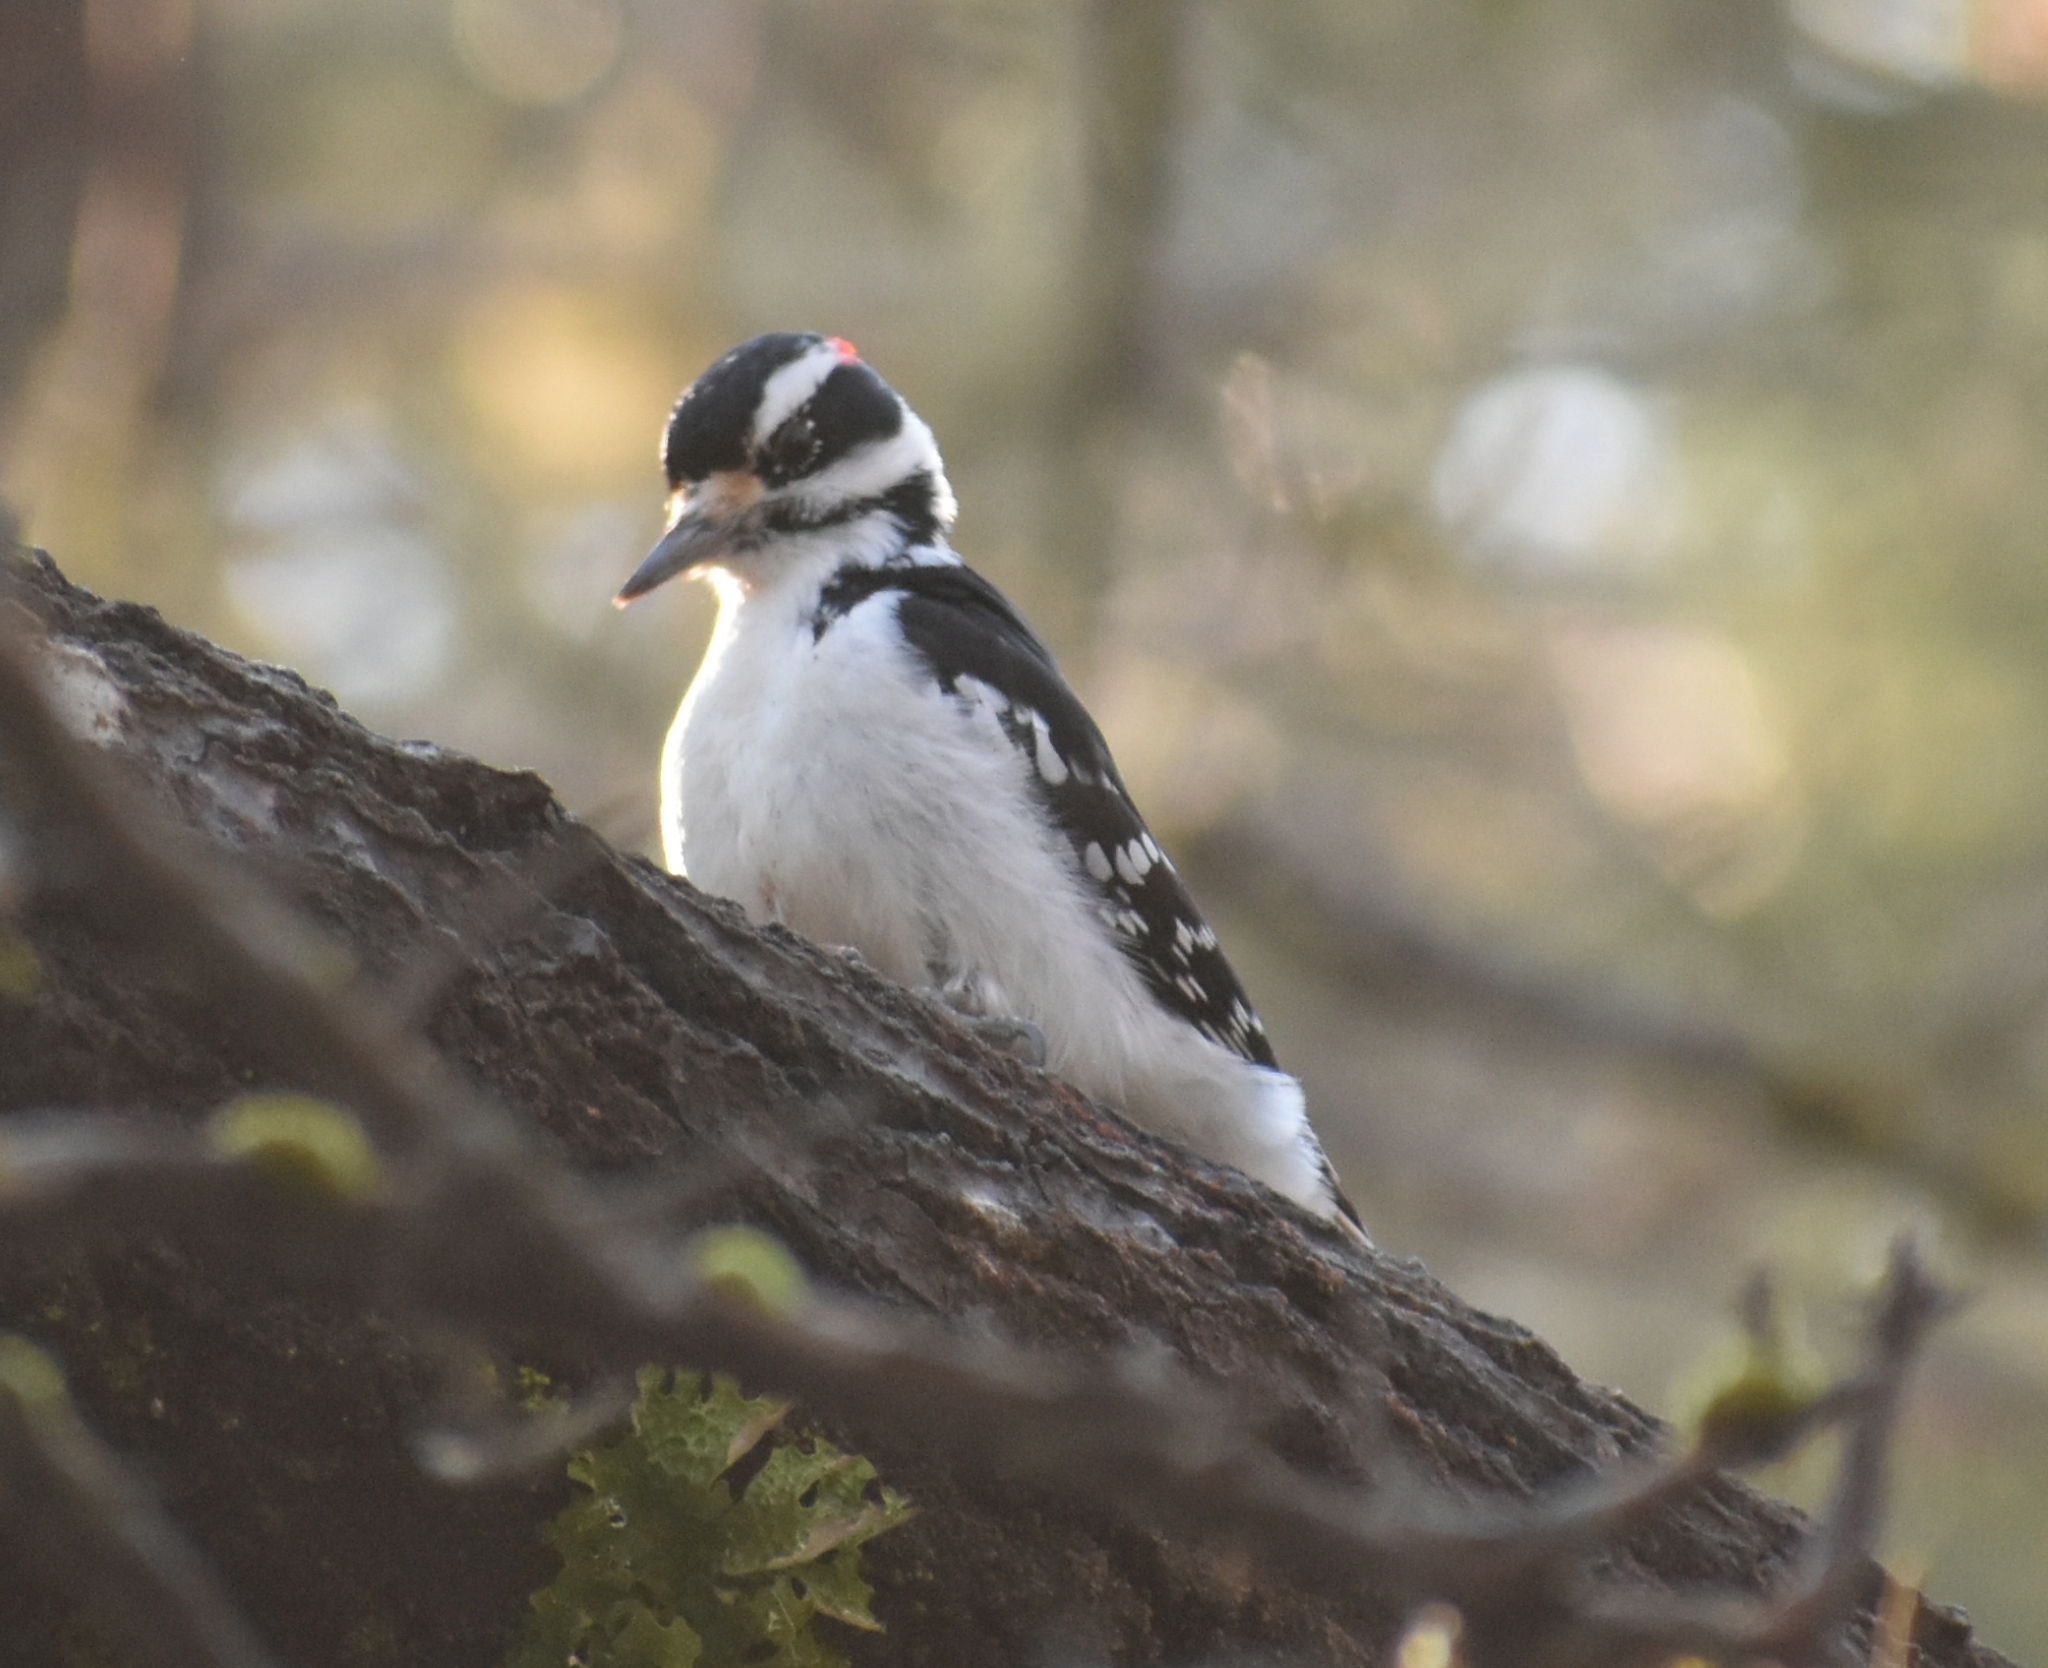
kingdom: Animalia
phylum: Chordata
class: Aves
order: Piciformes
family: Picidae
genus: Leuconotopicus
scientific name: Leuconotopicus villosus
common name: Hairy woodpecker
